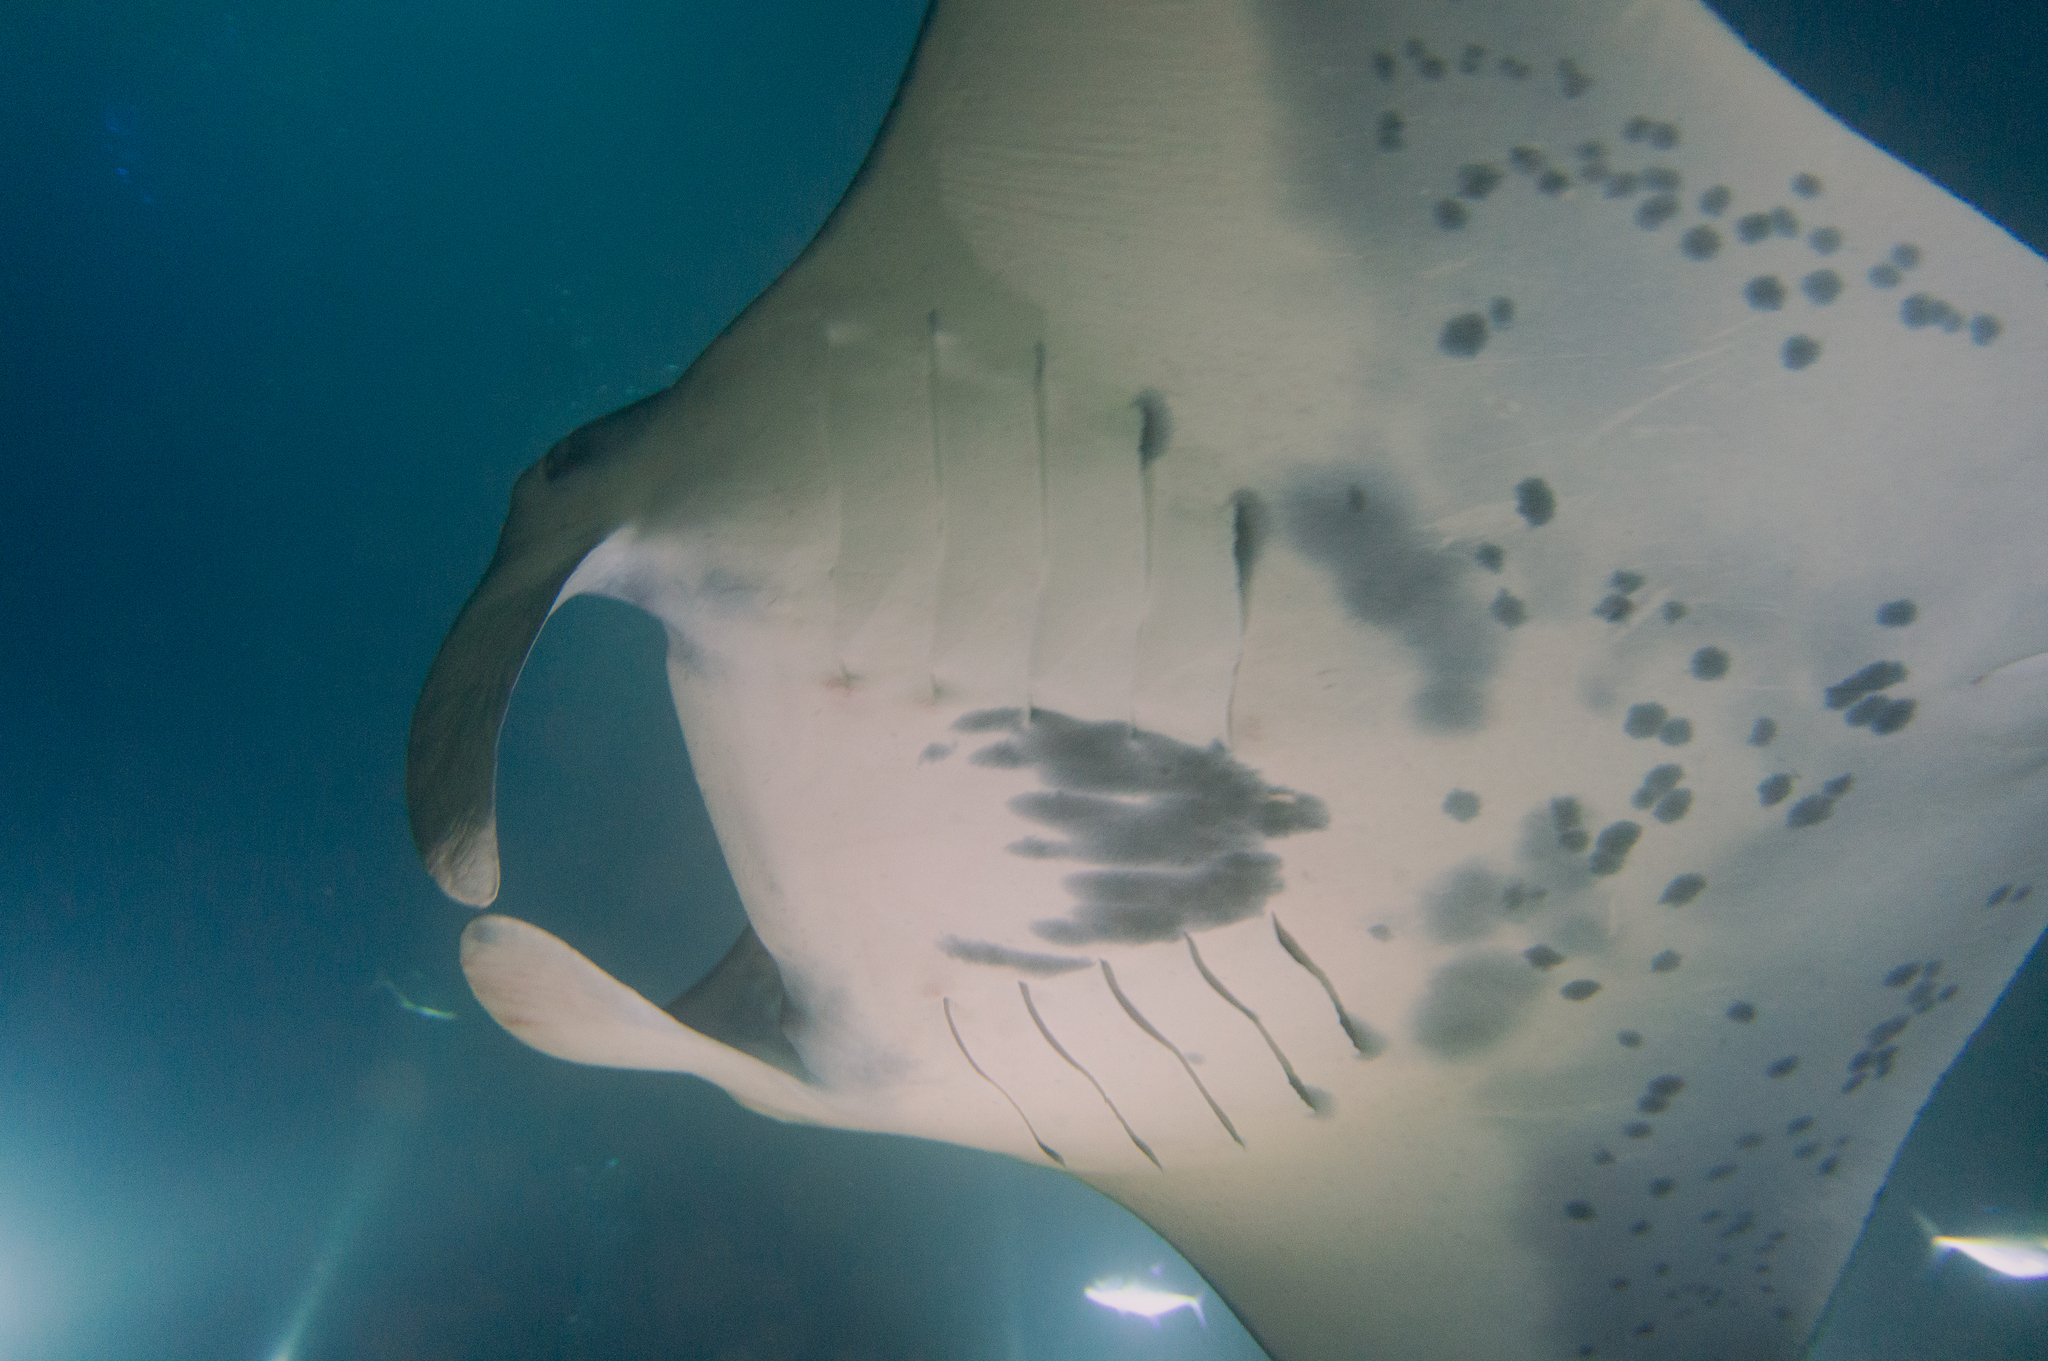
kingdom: Animalia
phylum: Chordata
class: Elasmobranchii
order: Myliobatiformes
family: Myliobatidae
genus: Mobula
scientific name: Mobula alfredi
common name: Reef manta ray
